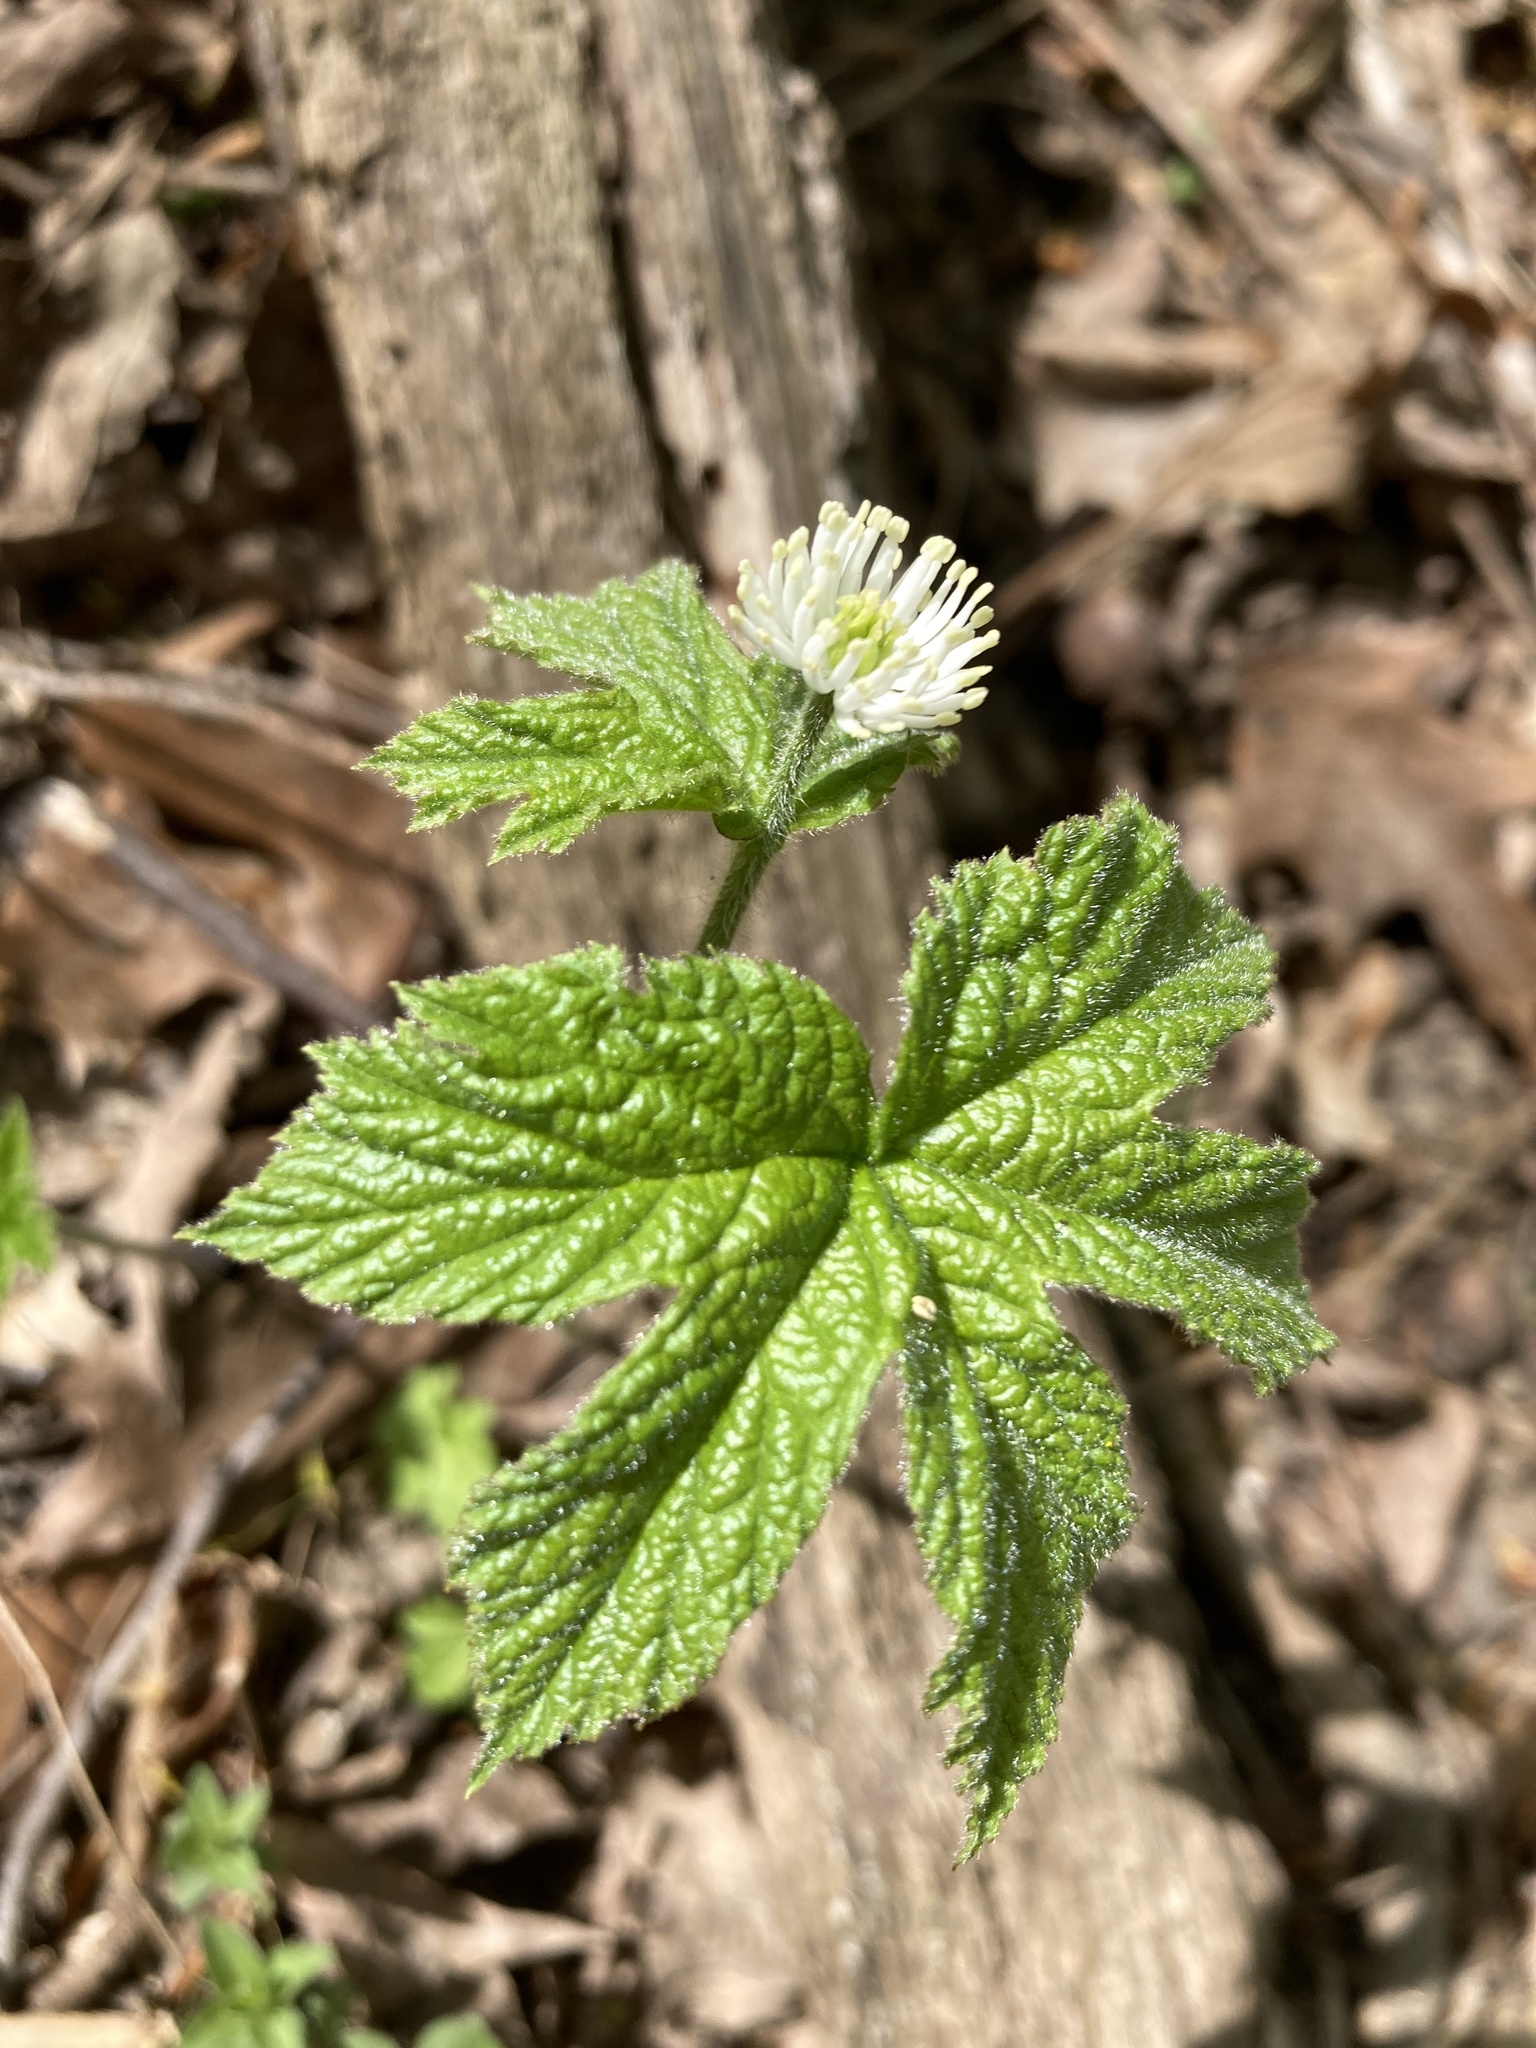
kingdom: Plantae
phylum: Tracheophyta
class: Magnoliopsida
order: Ranunculales
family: Ranunculaceae
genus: Hydrastis
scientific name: Hydrastis canadensis
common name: Goldenseal
